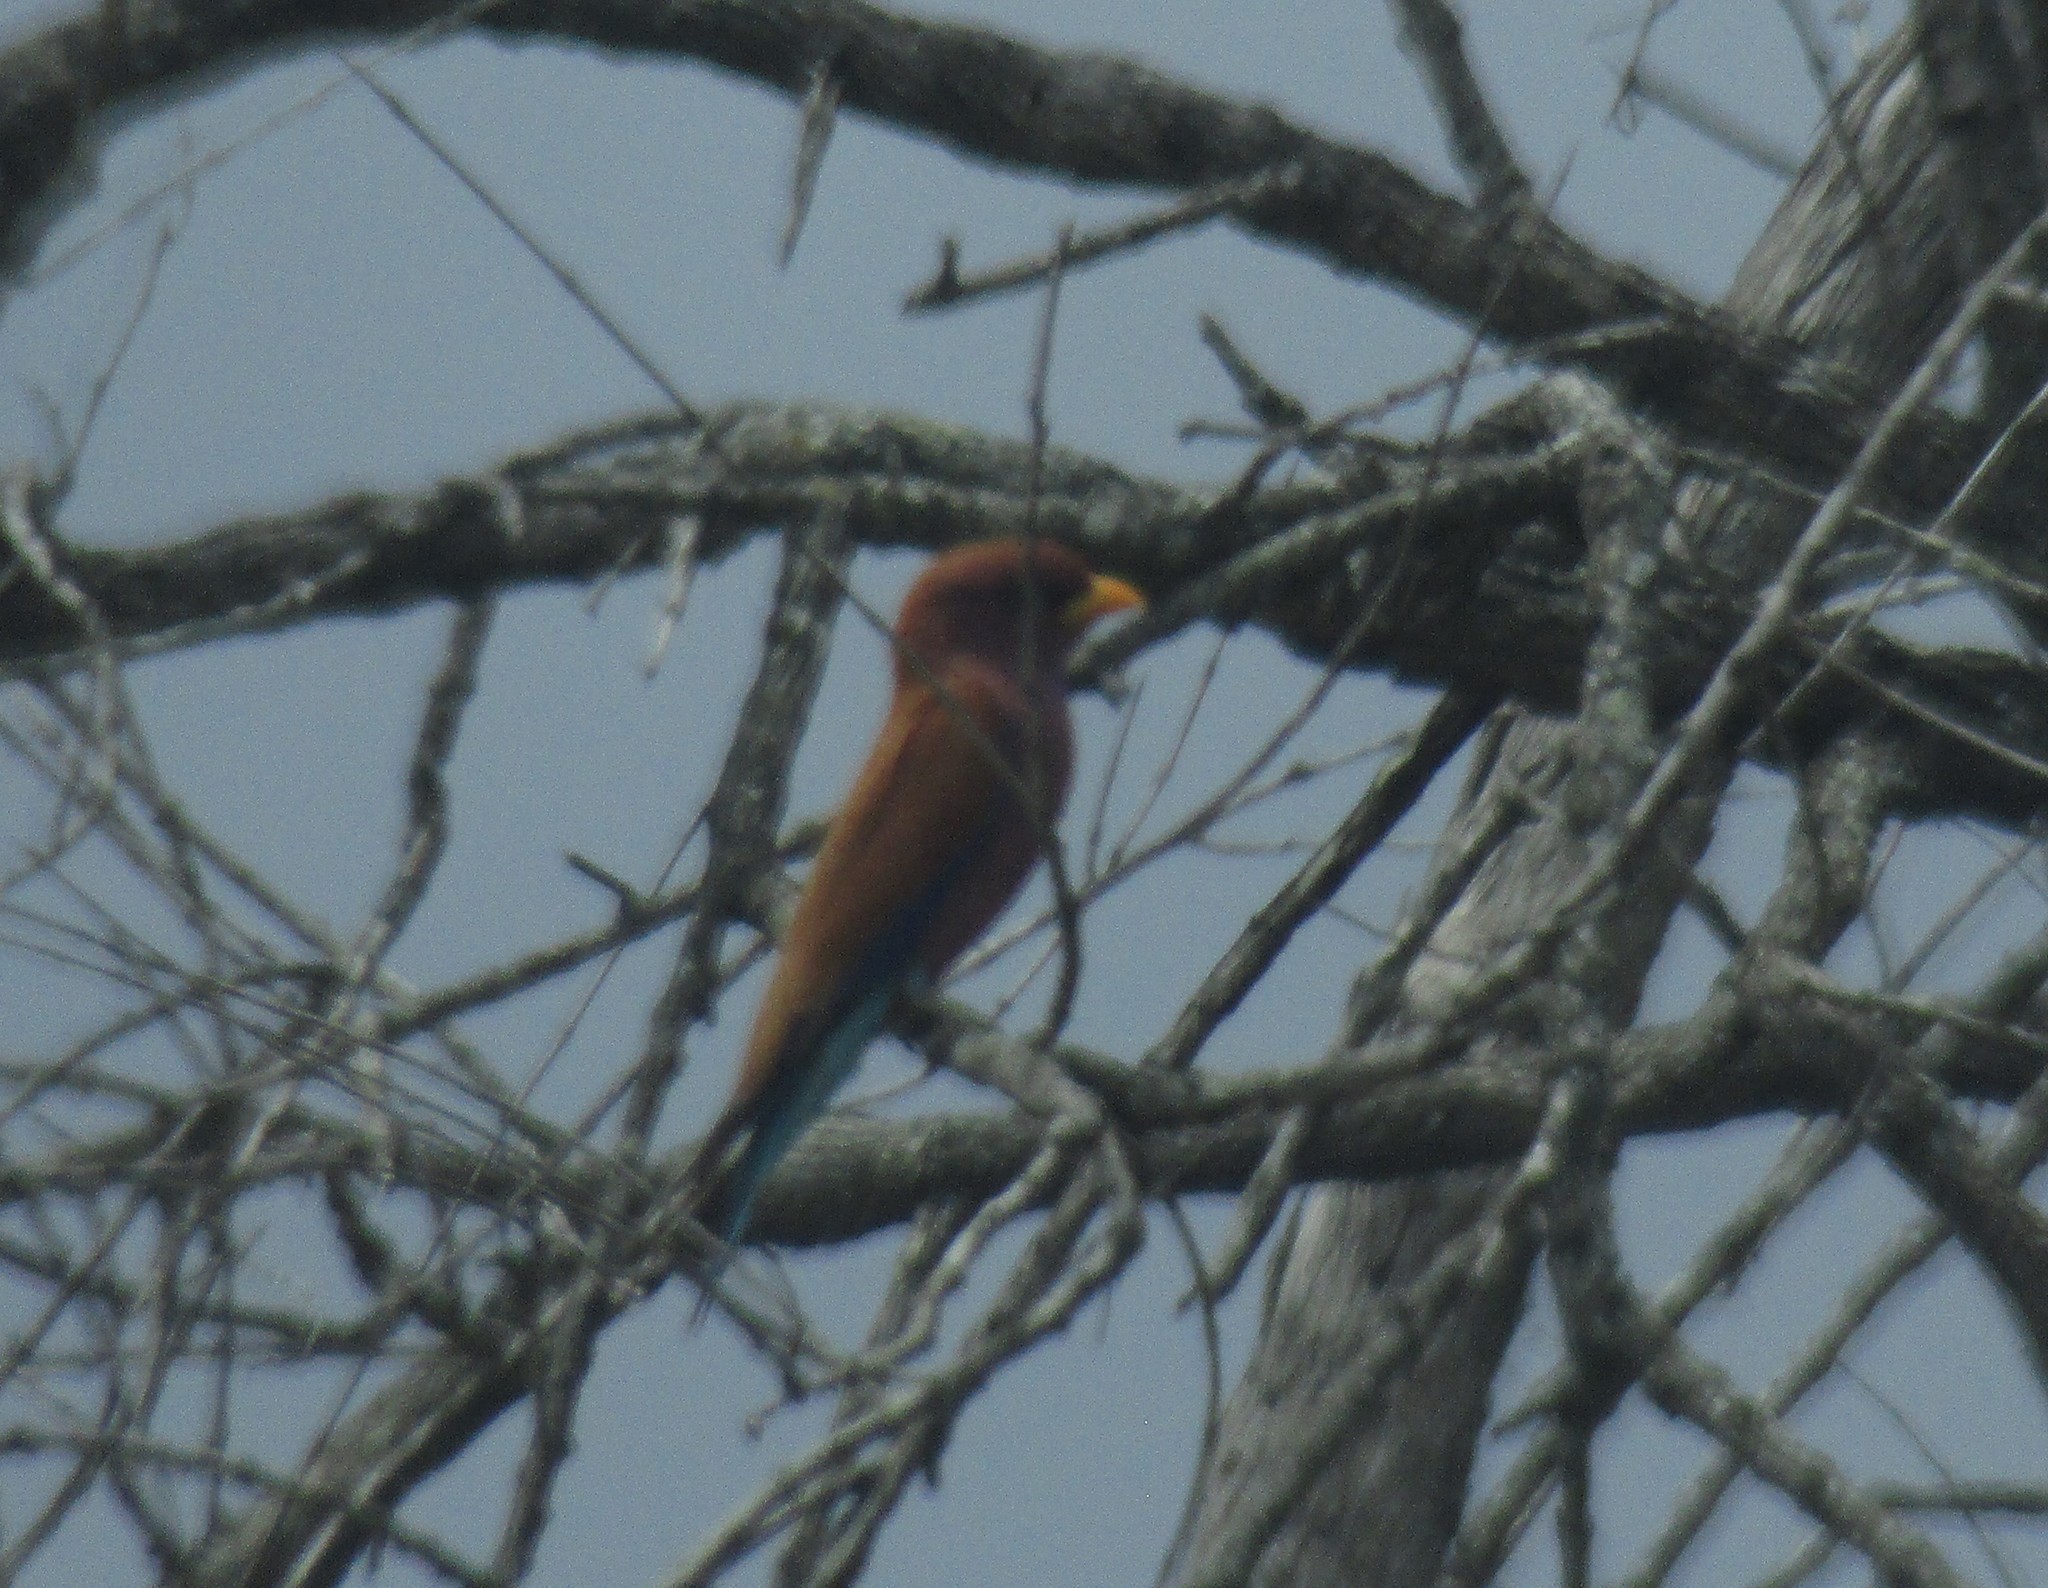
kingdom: Animalia
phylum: Chordata
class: Aves
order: Coraciiformes
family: Coraciidae
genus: Eurystomus
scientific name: Eurystomus glaucurus
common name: Broad-billed roller
